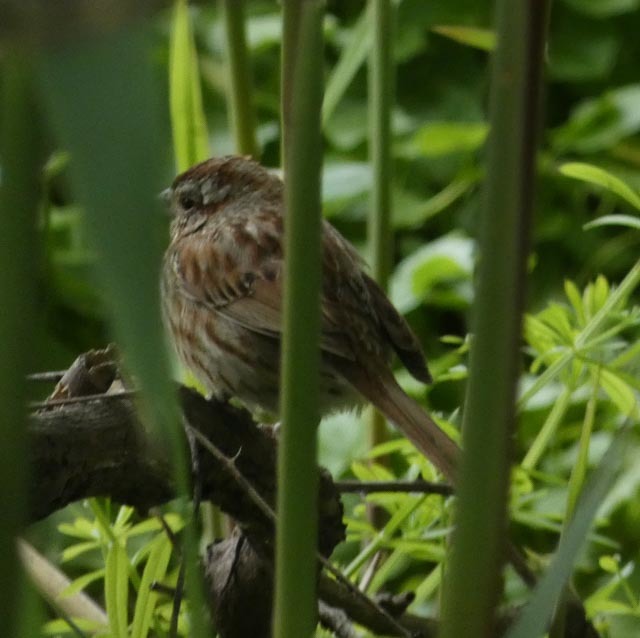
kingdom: Animalia
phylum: Chordata
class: Aves
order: Passeriformes
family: Passerellidae
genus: Melospiza
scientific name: Melospiza melodia
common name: Song sparrow
